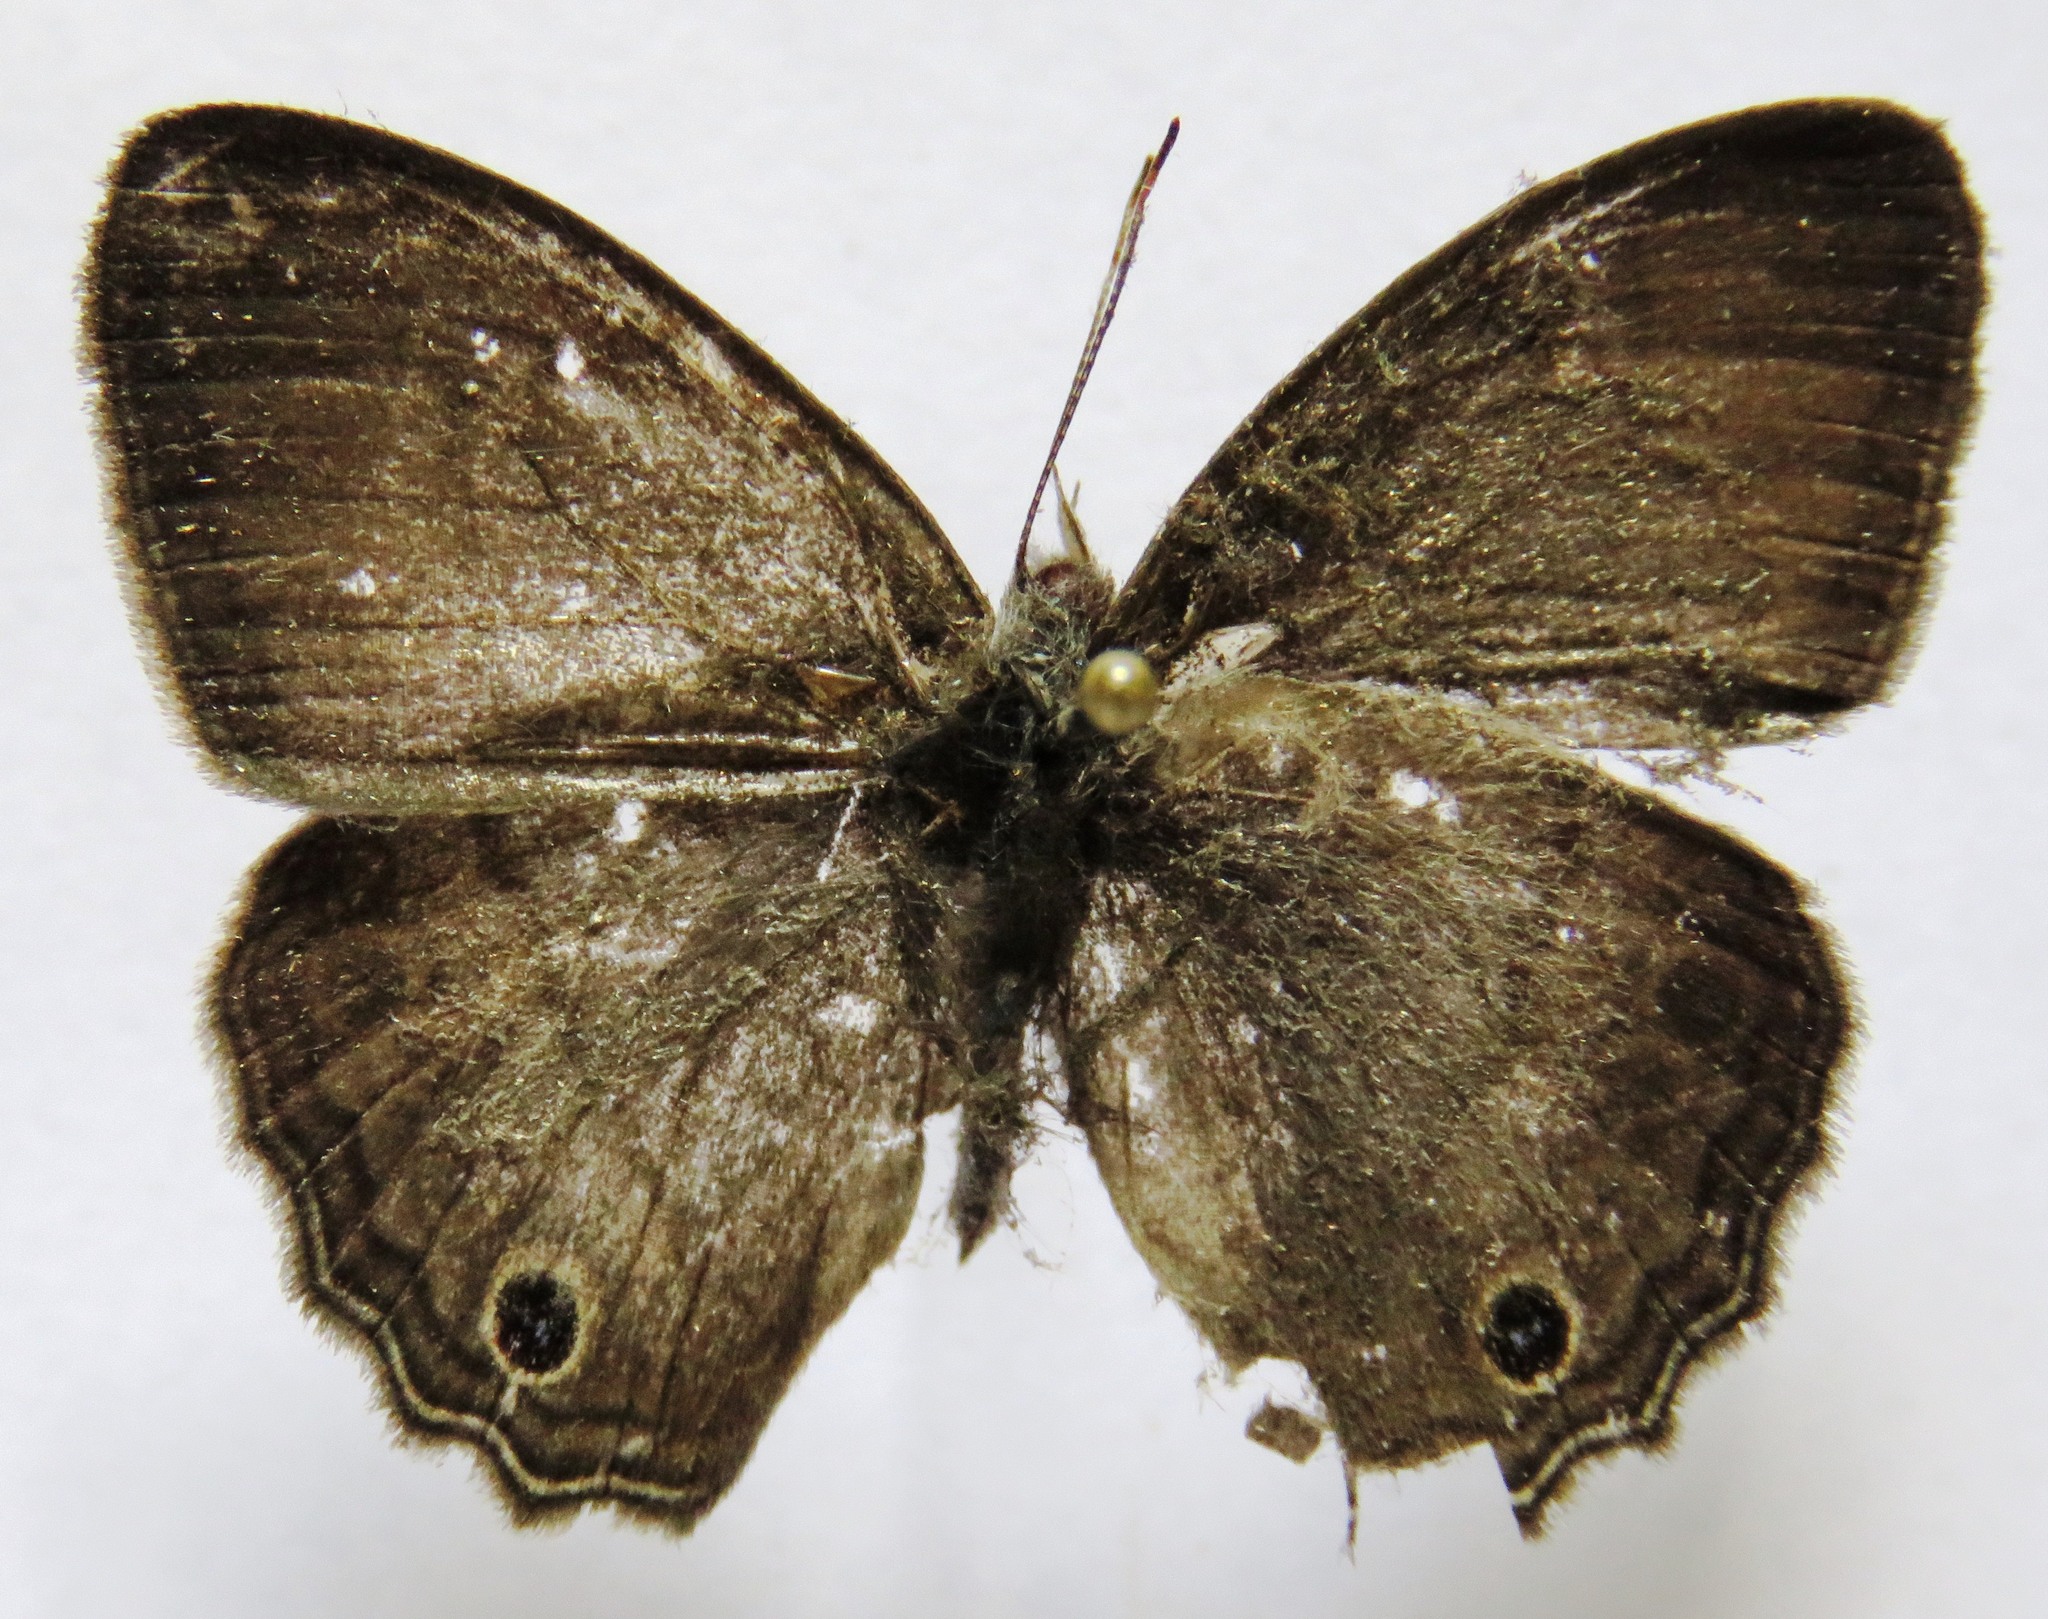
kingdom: Animalia
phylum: Arthropoda
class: Insecta
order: Lepidoptera
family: Nymphalidae
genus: Vareuptychia
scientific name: Vareuptychia similis
